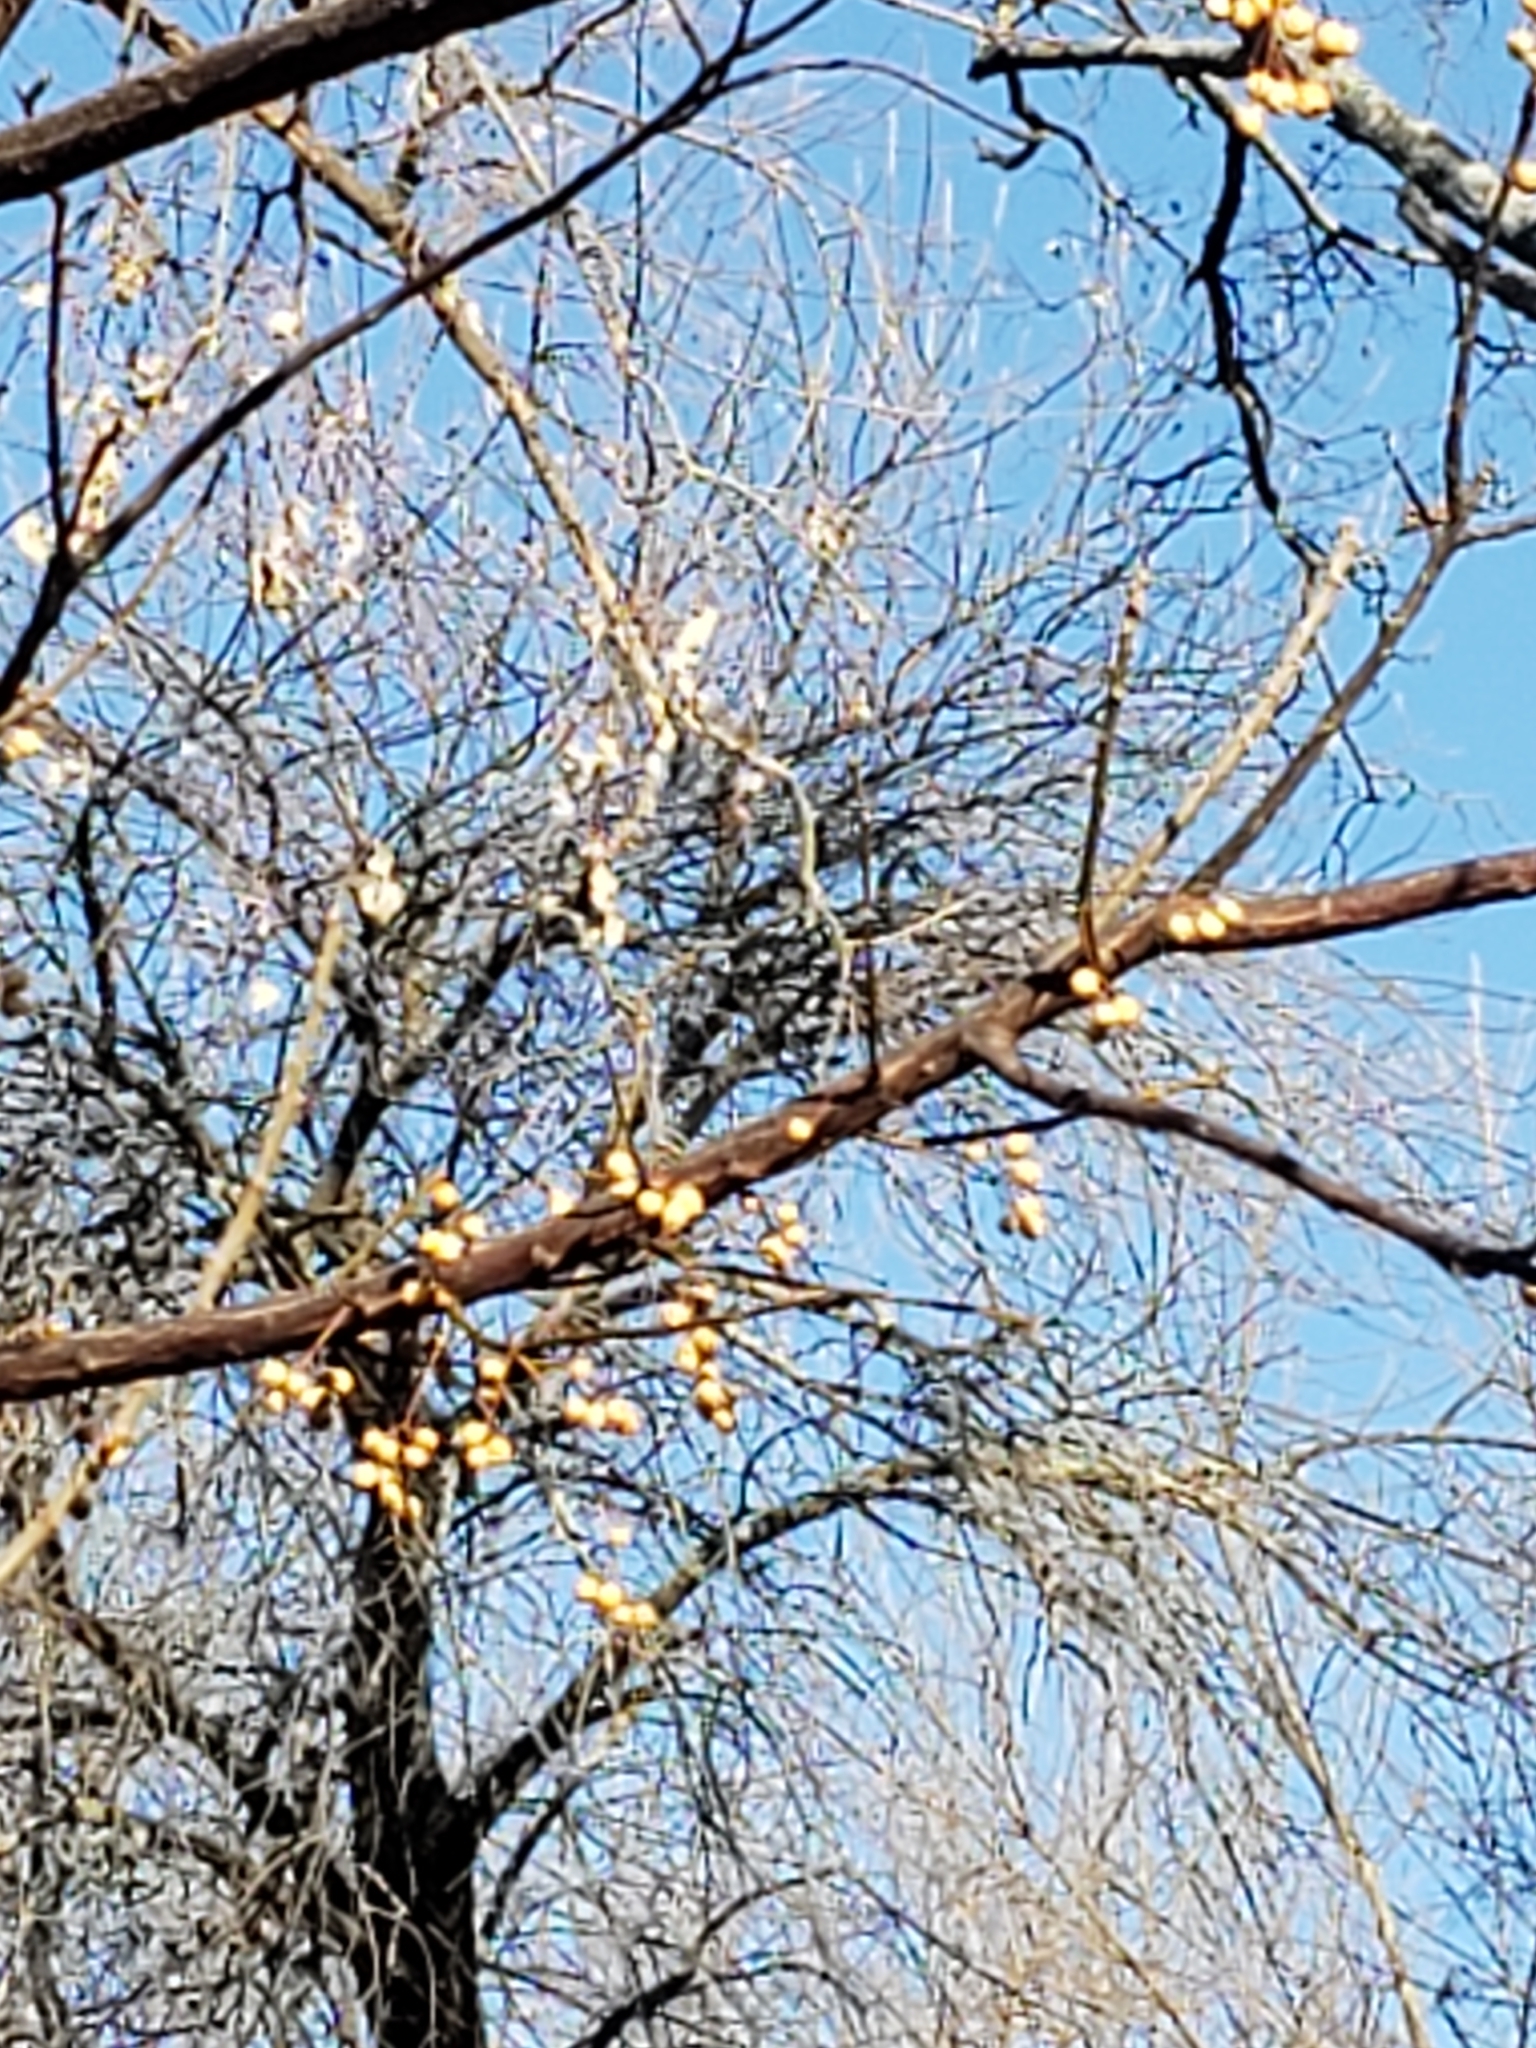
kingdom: Plantae
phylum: Tracheophyta
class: Magnoliopsida
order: Sapindales
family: Meliaceae
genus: Melia
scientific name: Melia azedarach
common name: Chinaberrytree
